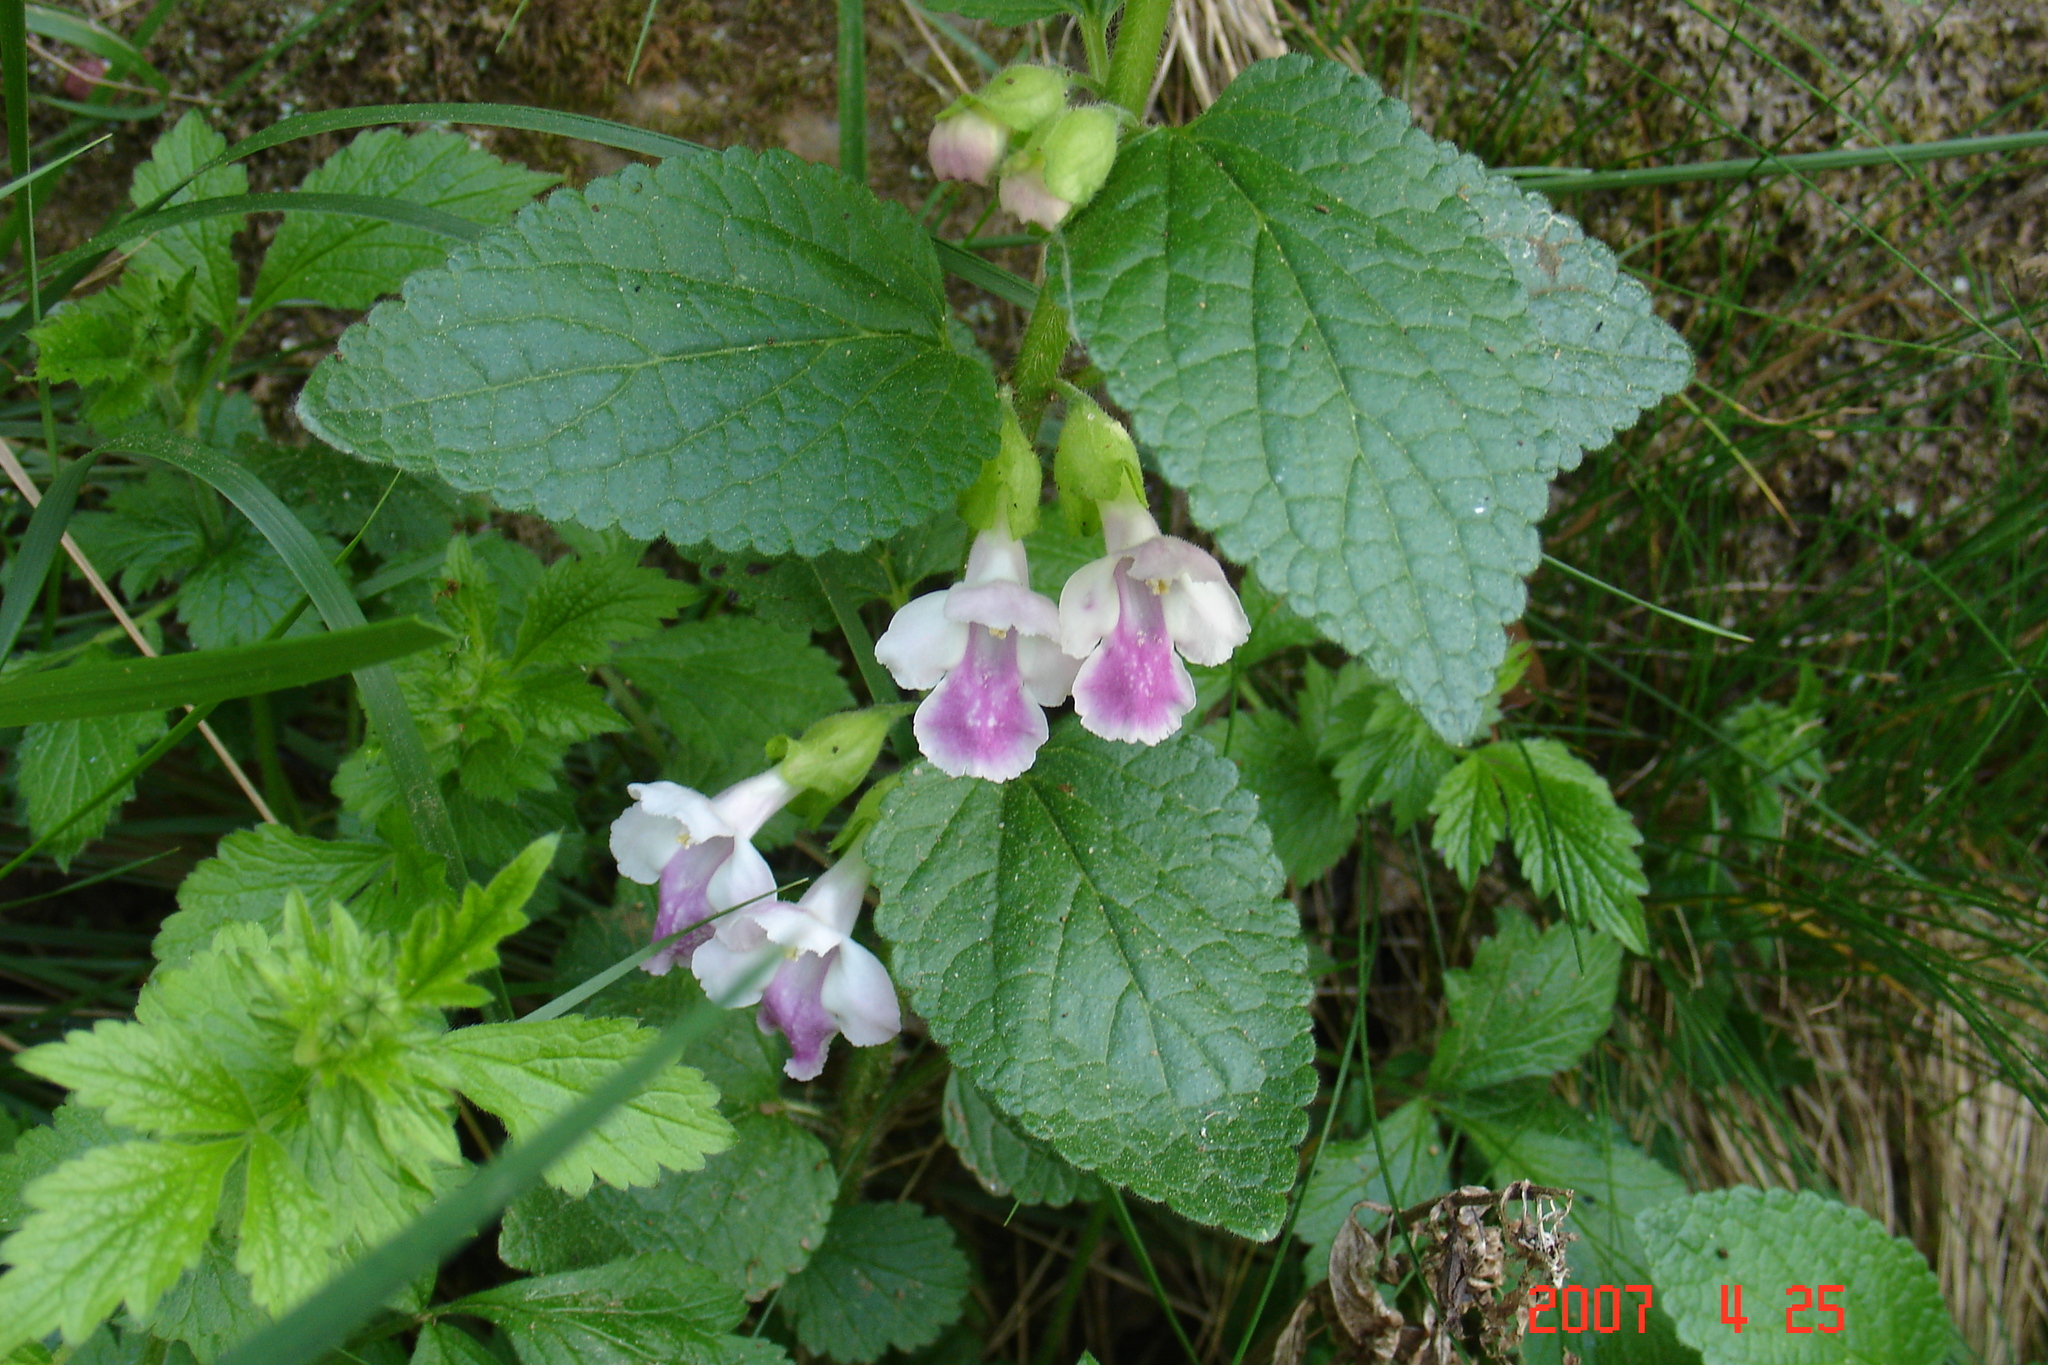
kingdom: Plantae
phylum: Tracheophyta
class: Magnoliopsida
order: Lamiales
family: Lamiaceae
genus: Melittis
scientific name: Melittis melissophyllum
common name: Bastard balm
